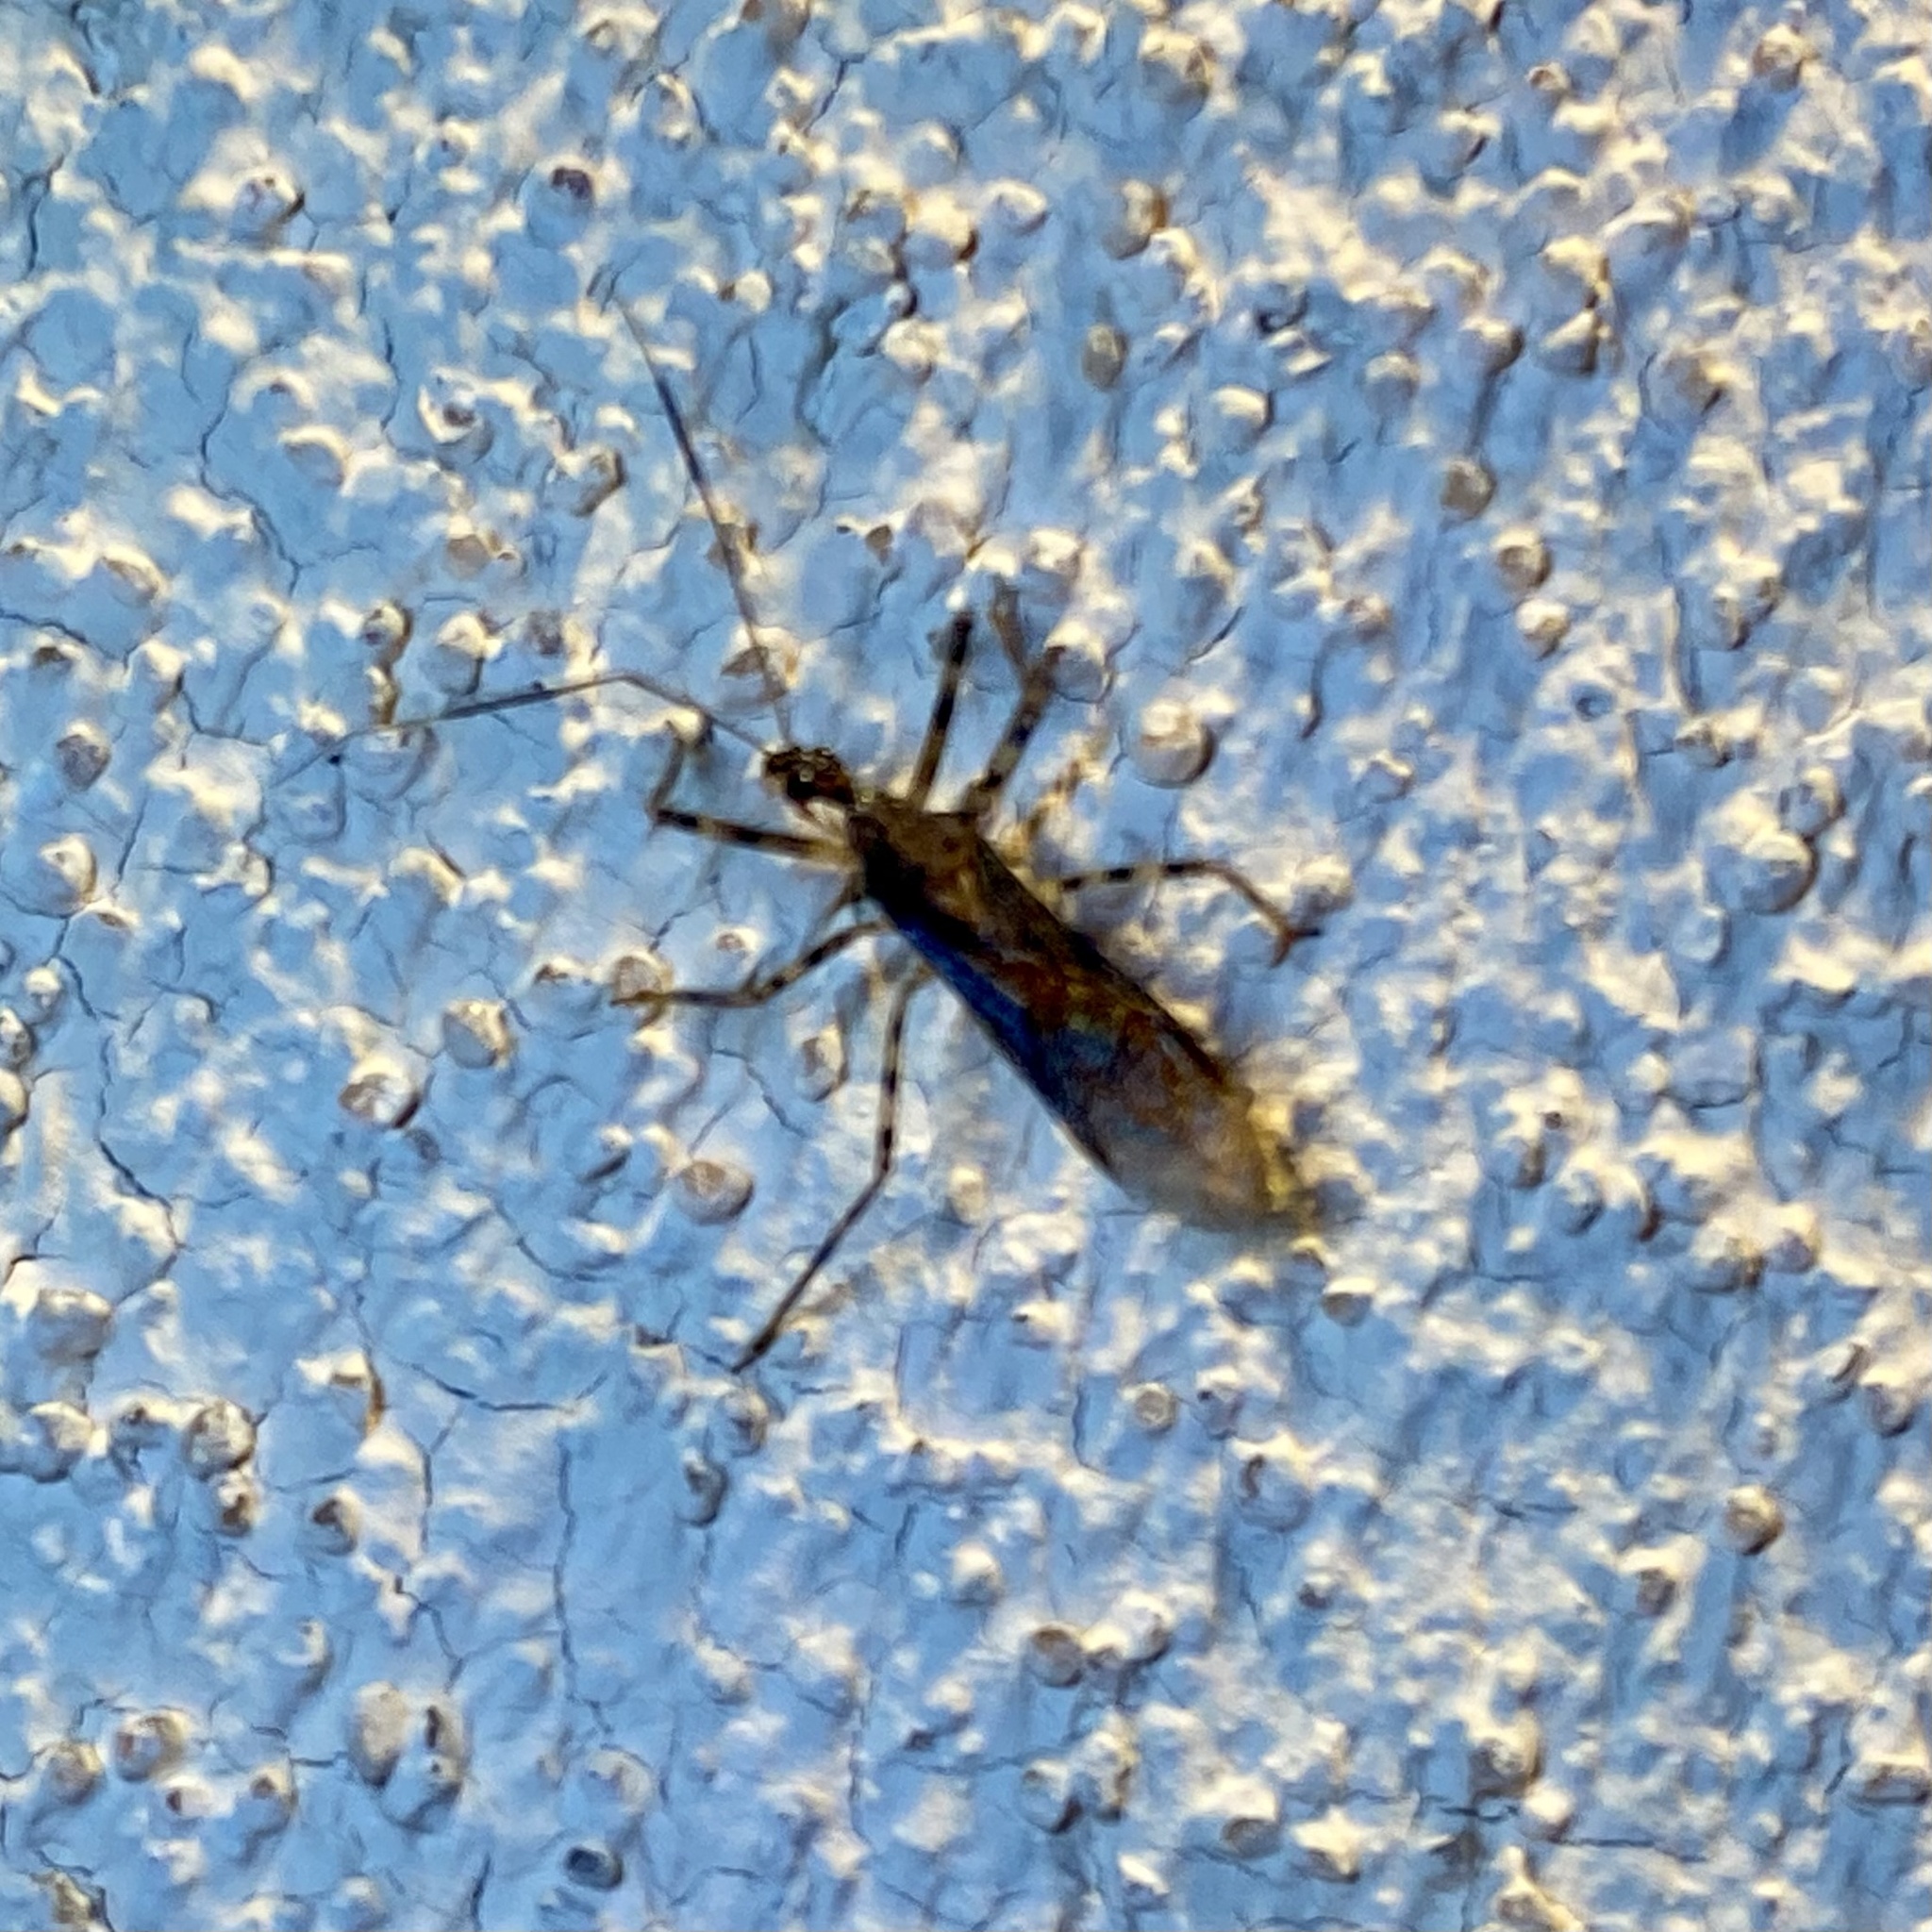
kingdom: Animalia
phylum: Arthropoda
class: Insecta
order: Hemiptera
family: Reduviidae
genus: Castolus
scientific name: Castolus ferox
